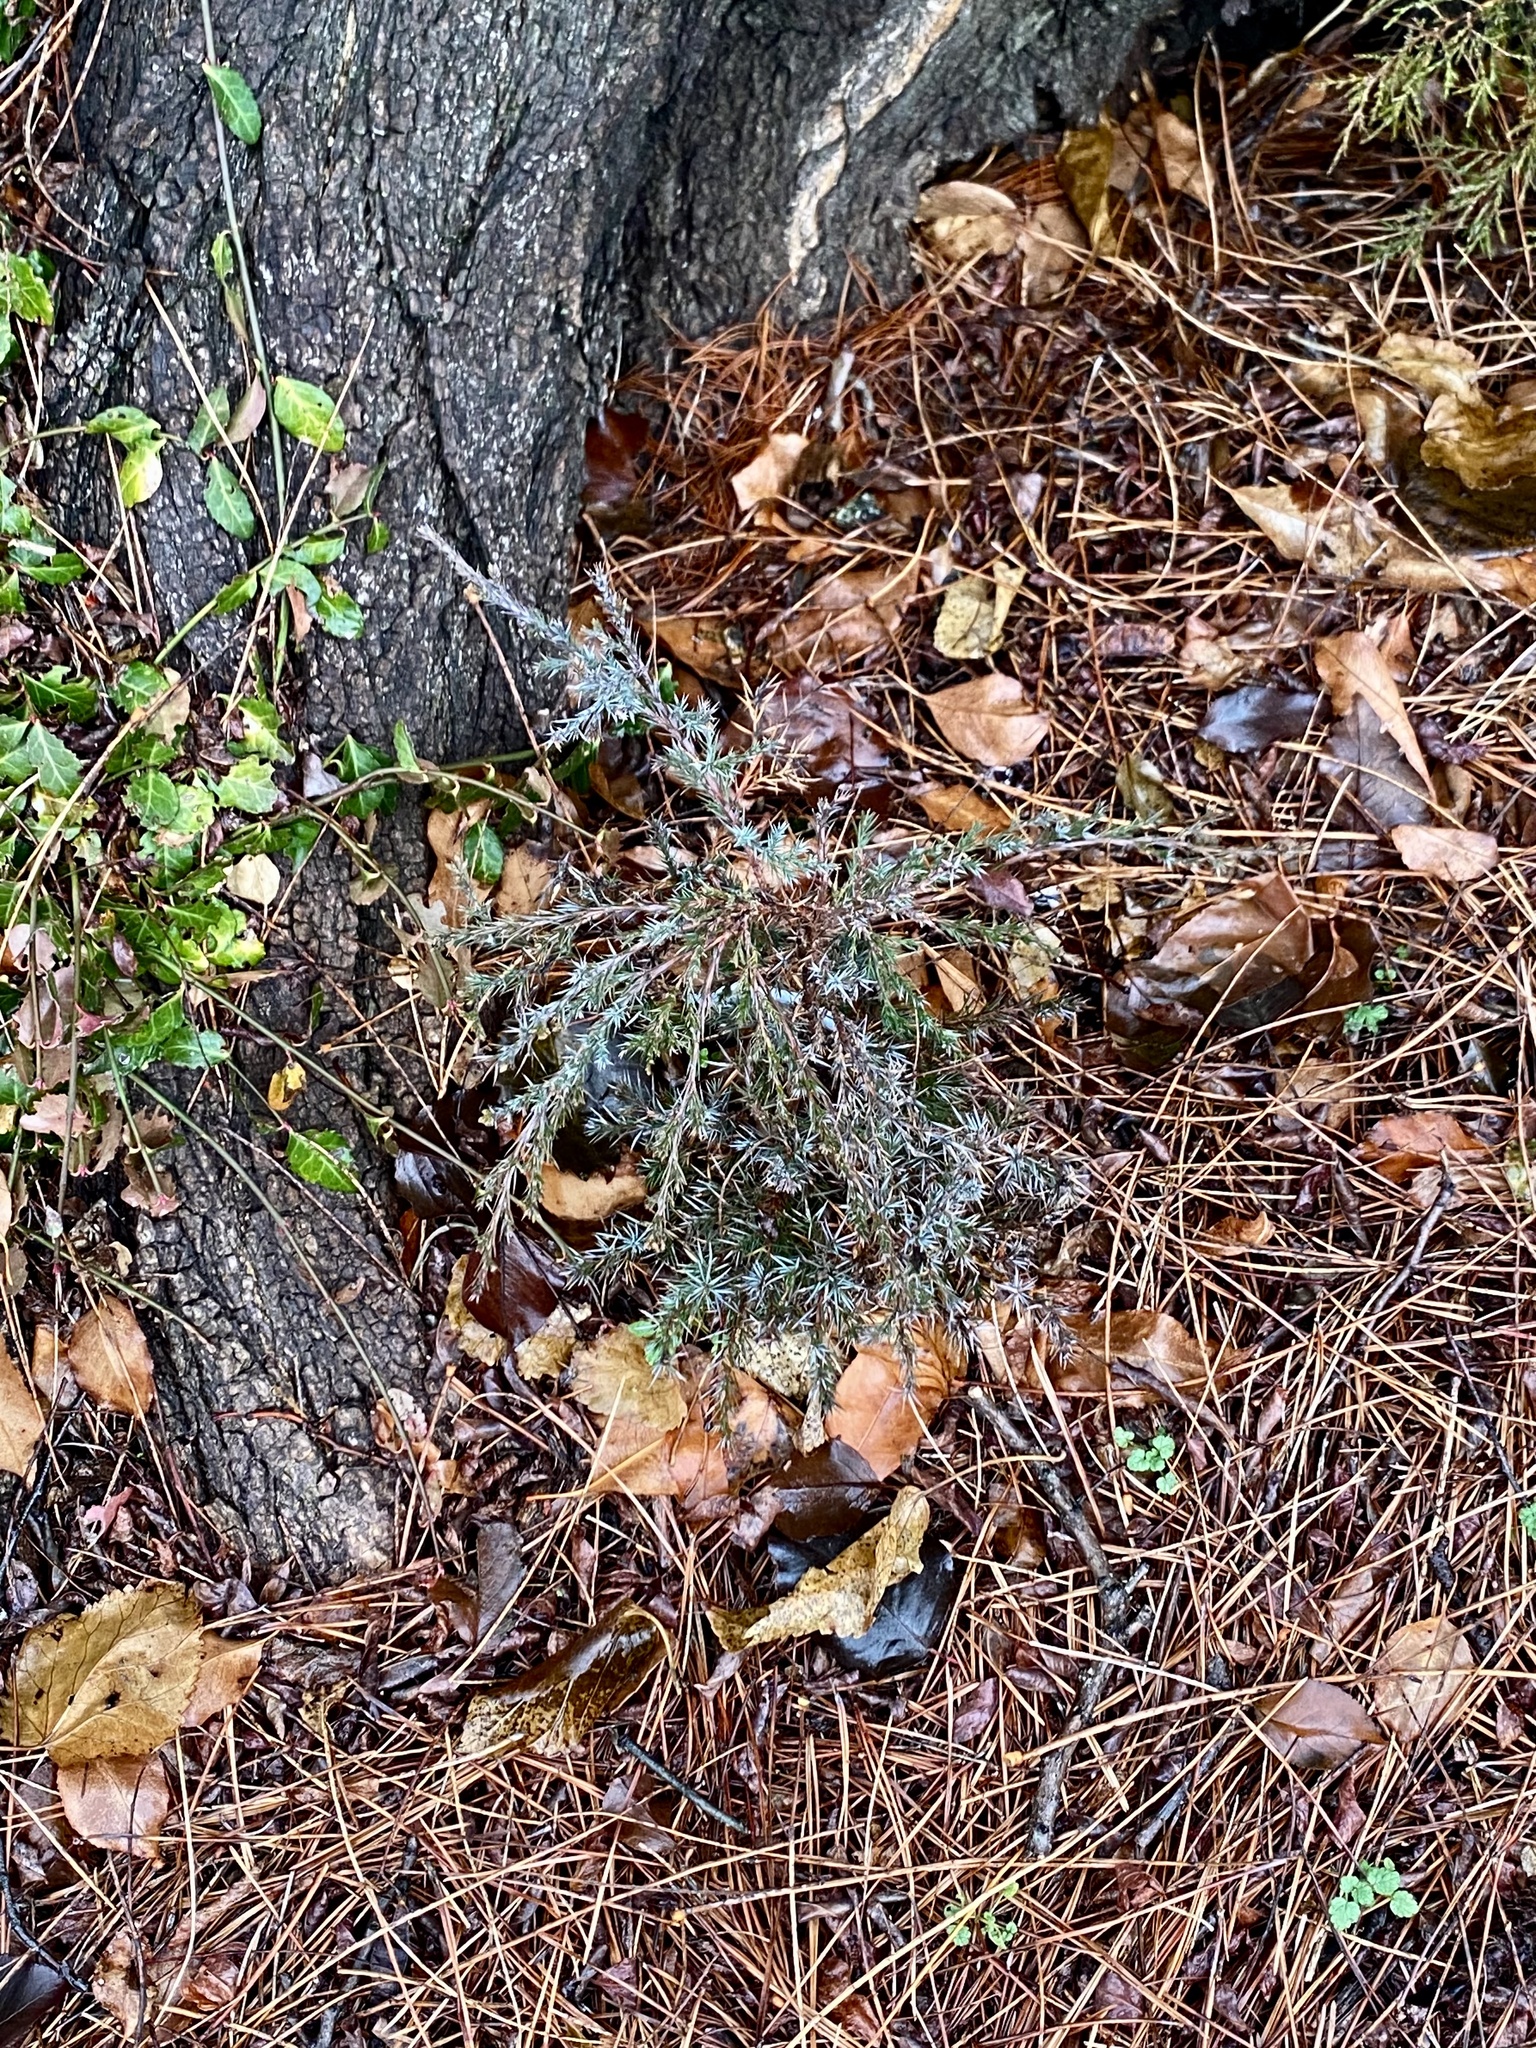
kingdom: Plantae
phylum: Tracheophyta
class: Pinopsida
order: Pinales
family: Cupressaceae
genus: Juniperus
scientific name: Juniperus virginiana
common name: Red juniper
